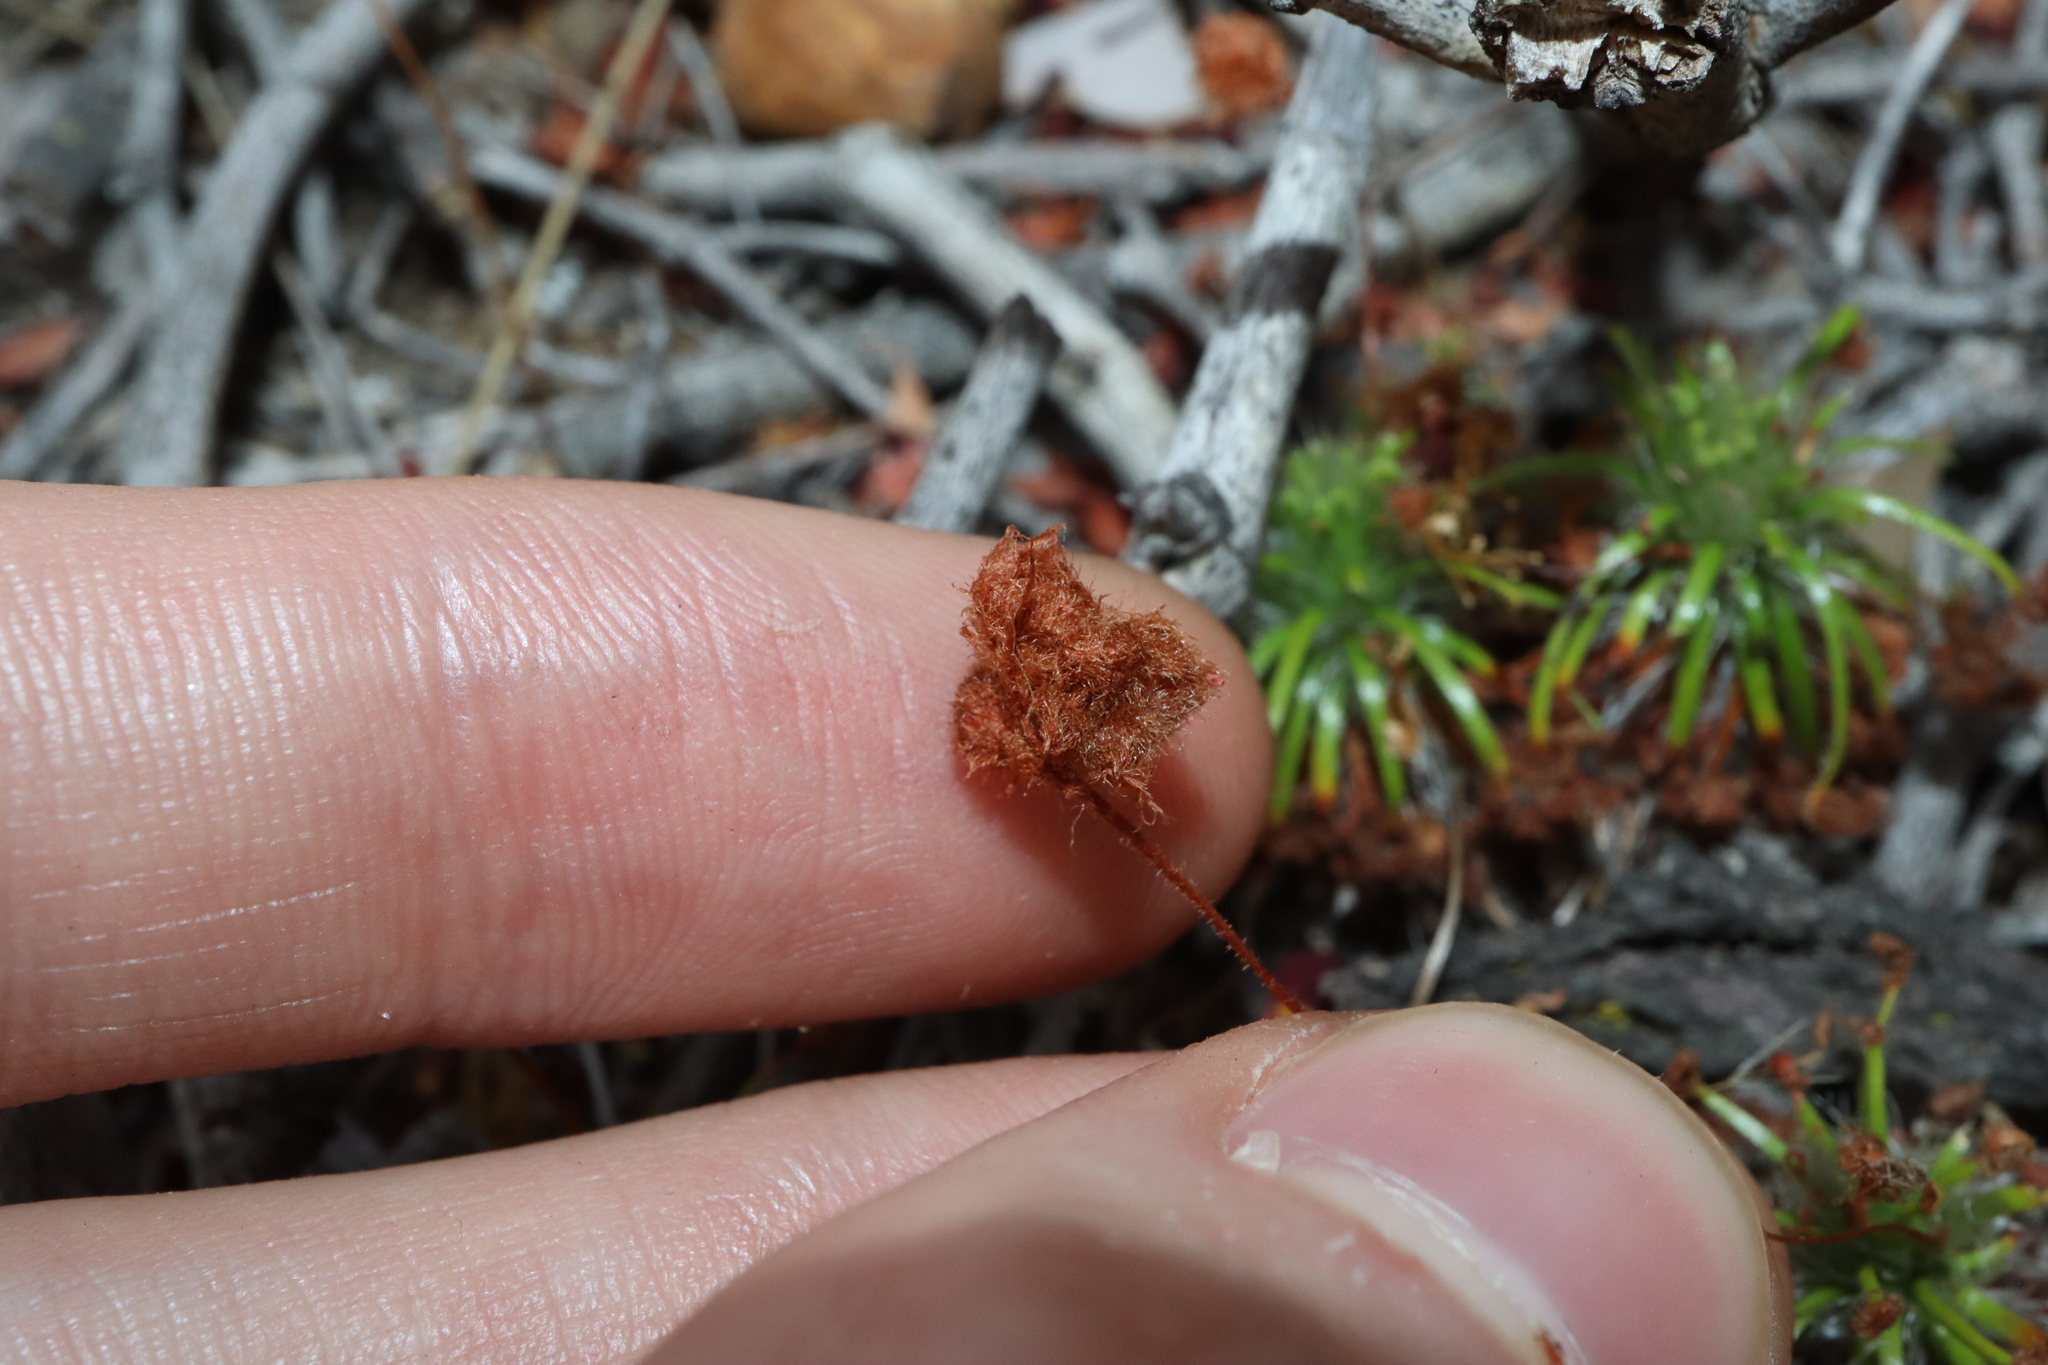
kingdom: Plantae
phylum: Tracheophyta
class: Magnoliopsida
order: Caryophyllales
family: Droseraceae
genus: Drosera
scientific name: Drosera barbigera
